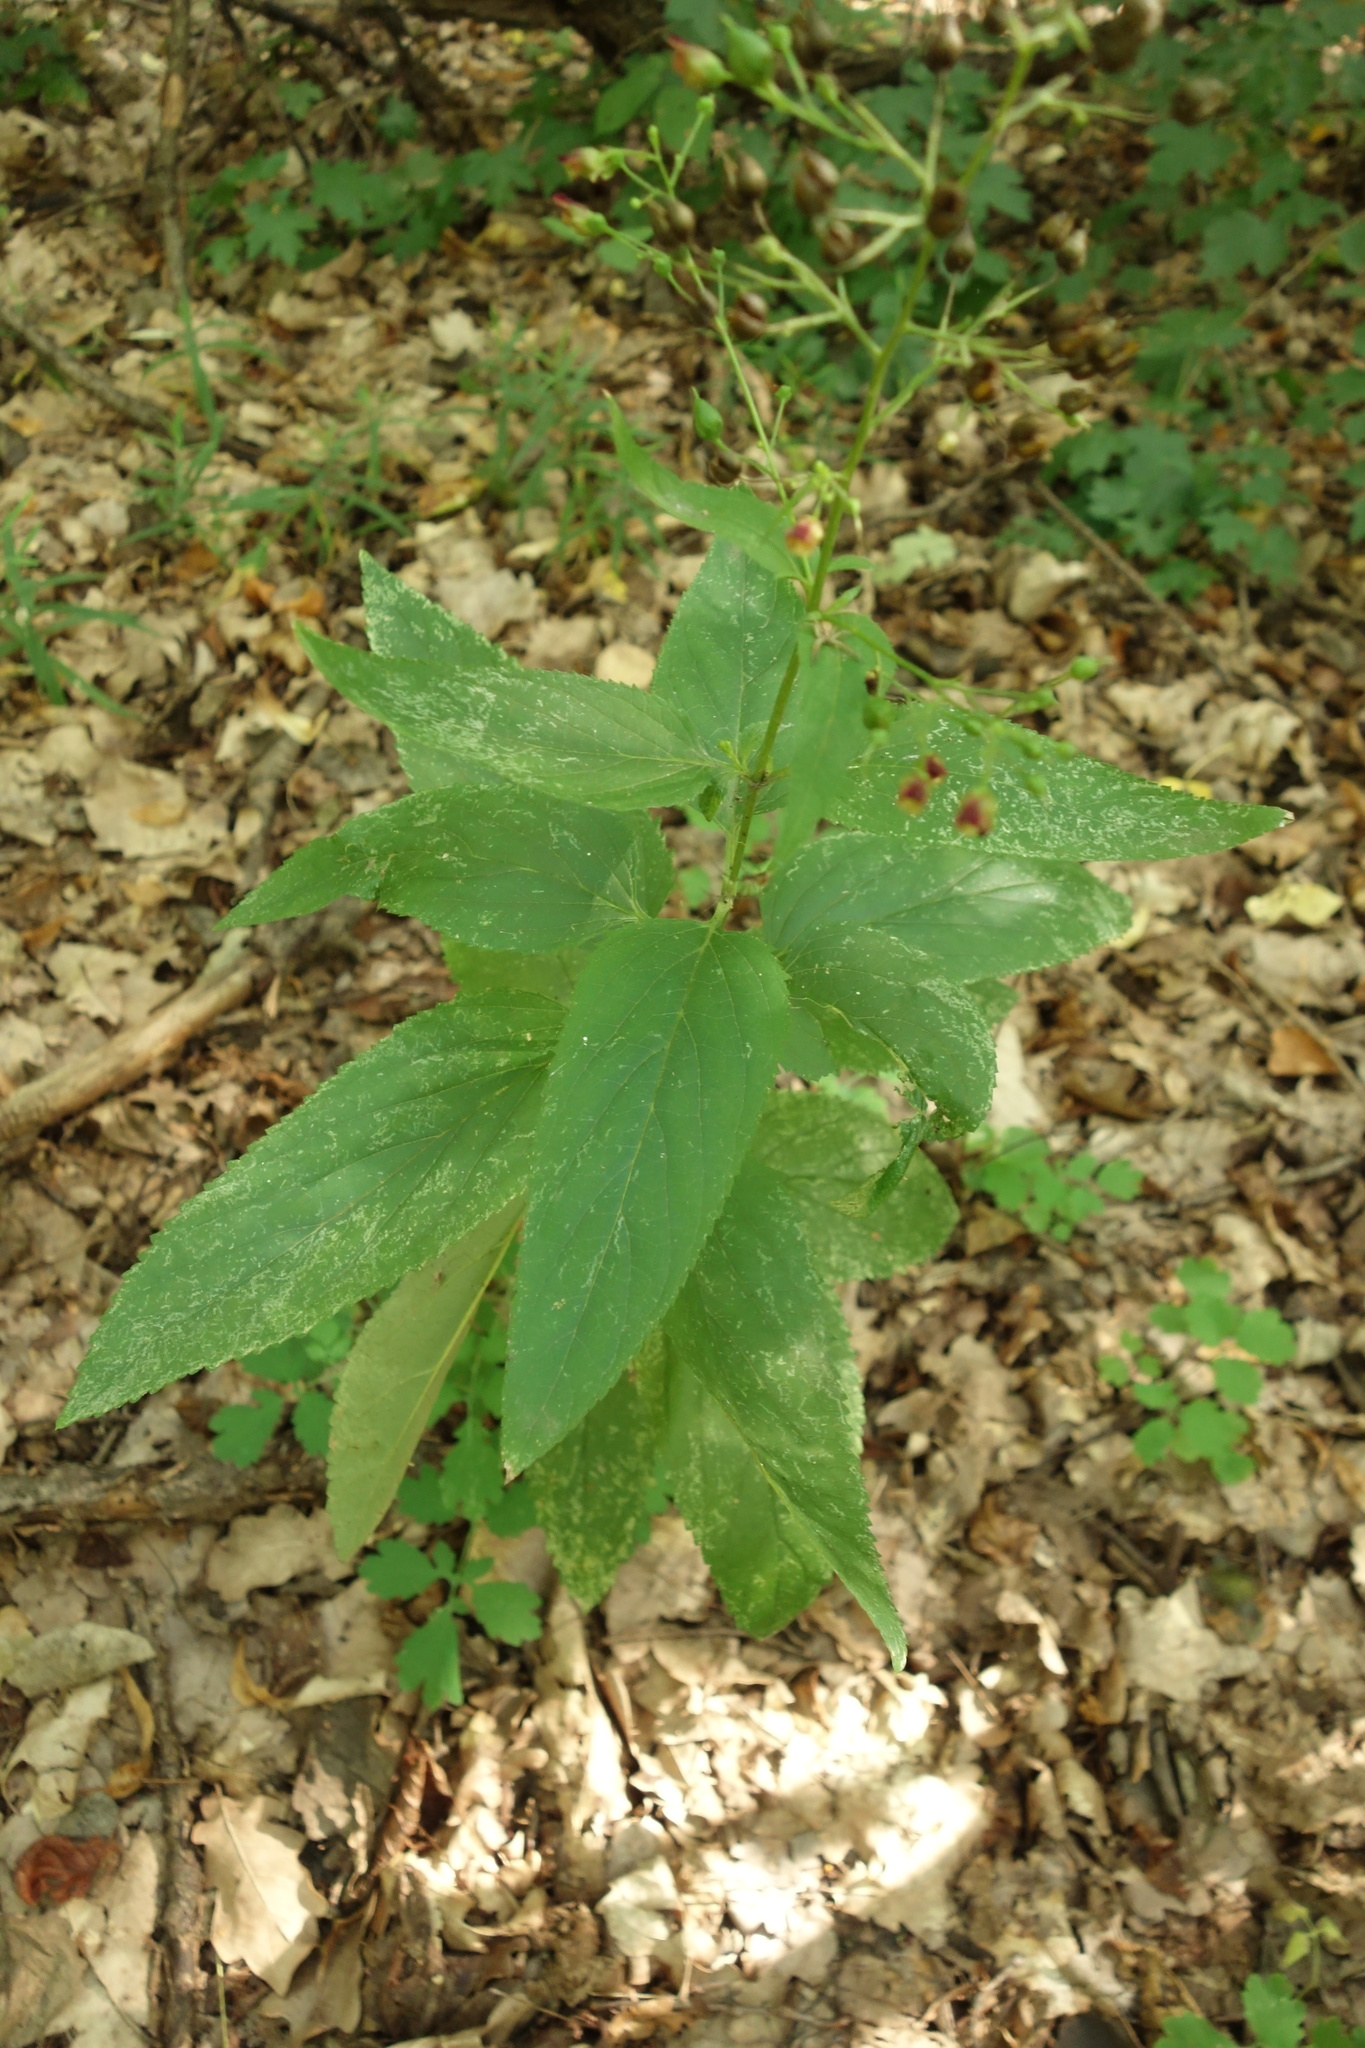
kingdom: Plantae
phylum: Tracheophyta
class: Magnoliopsida
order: Lamiales
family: Scrophulariaceae
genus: Scrophularia
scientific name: Scrophularia nodosa
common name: Common figwort
